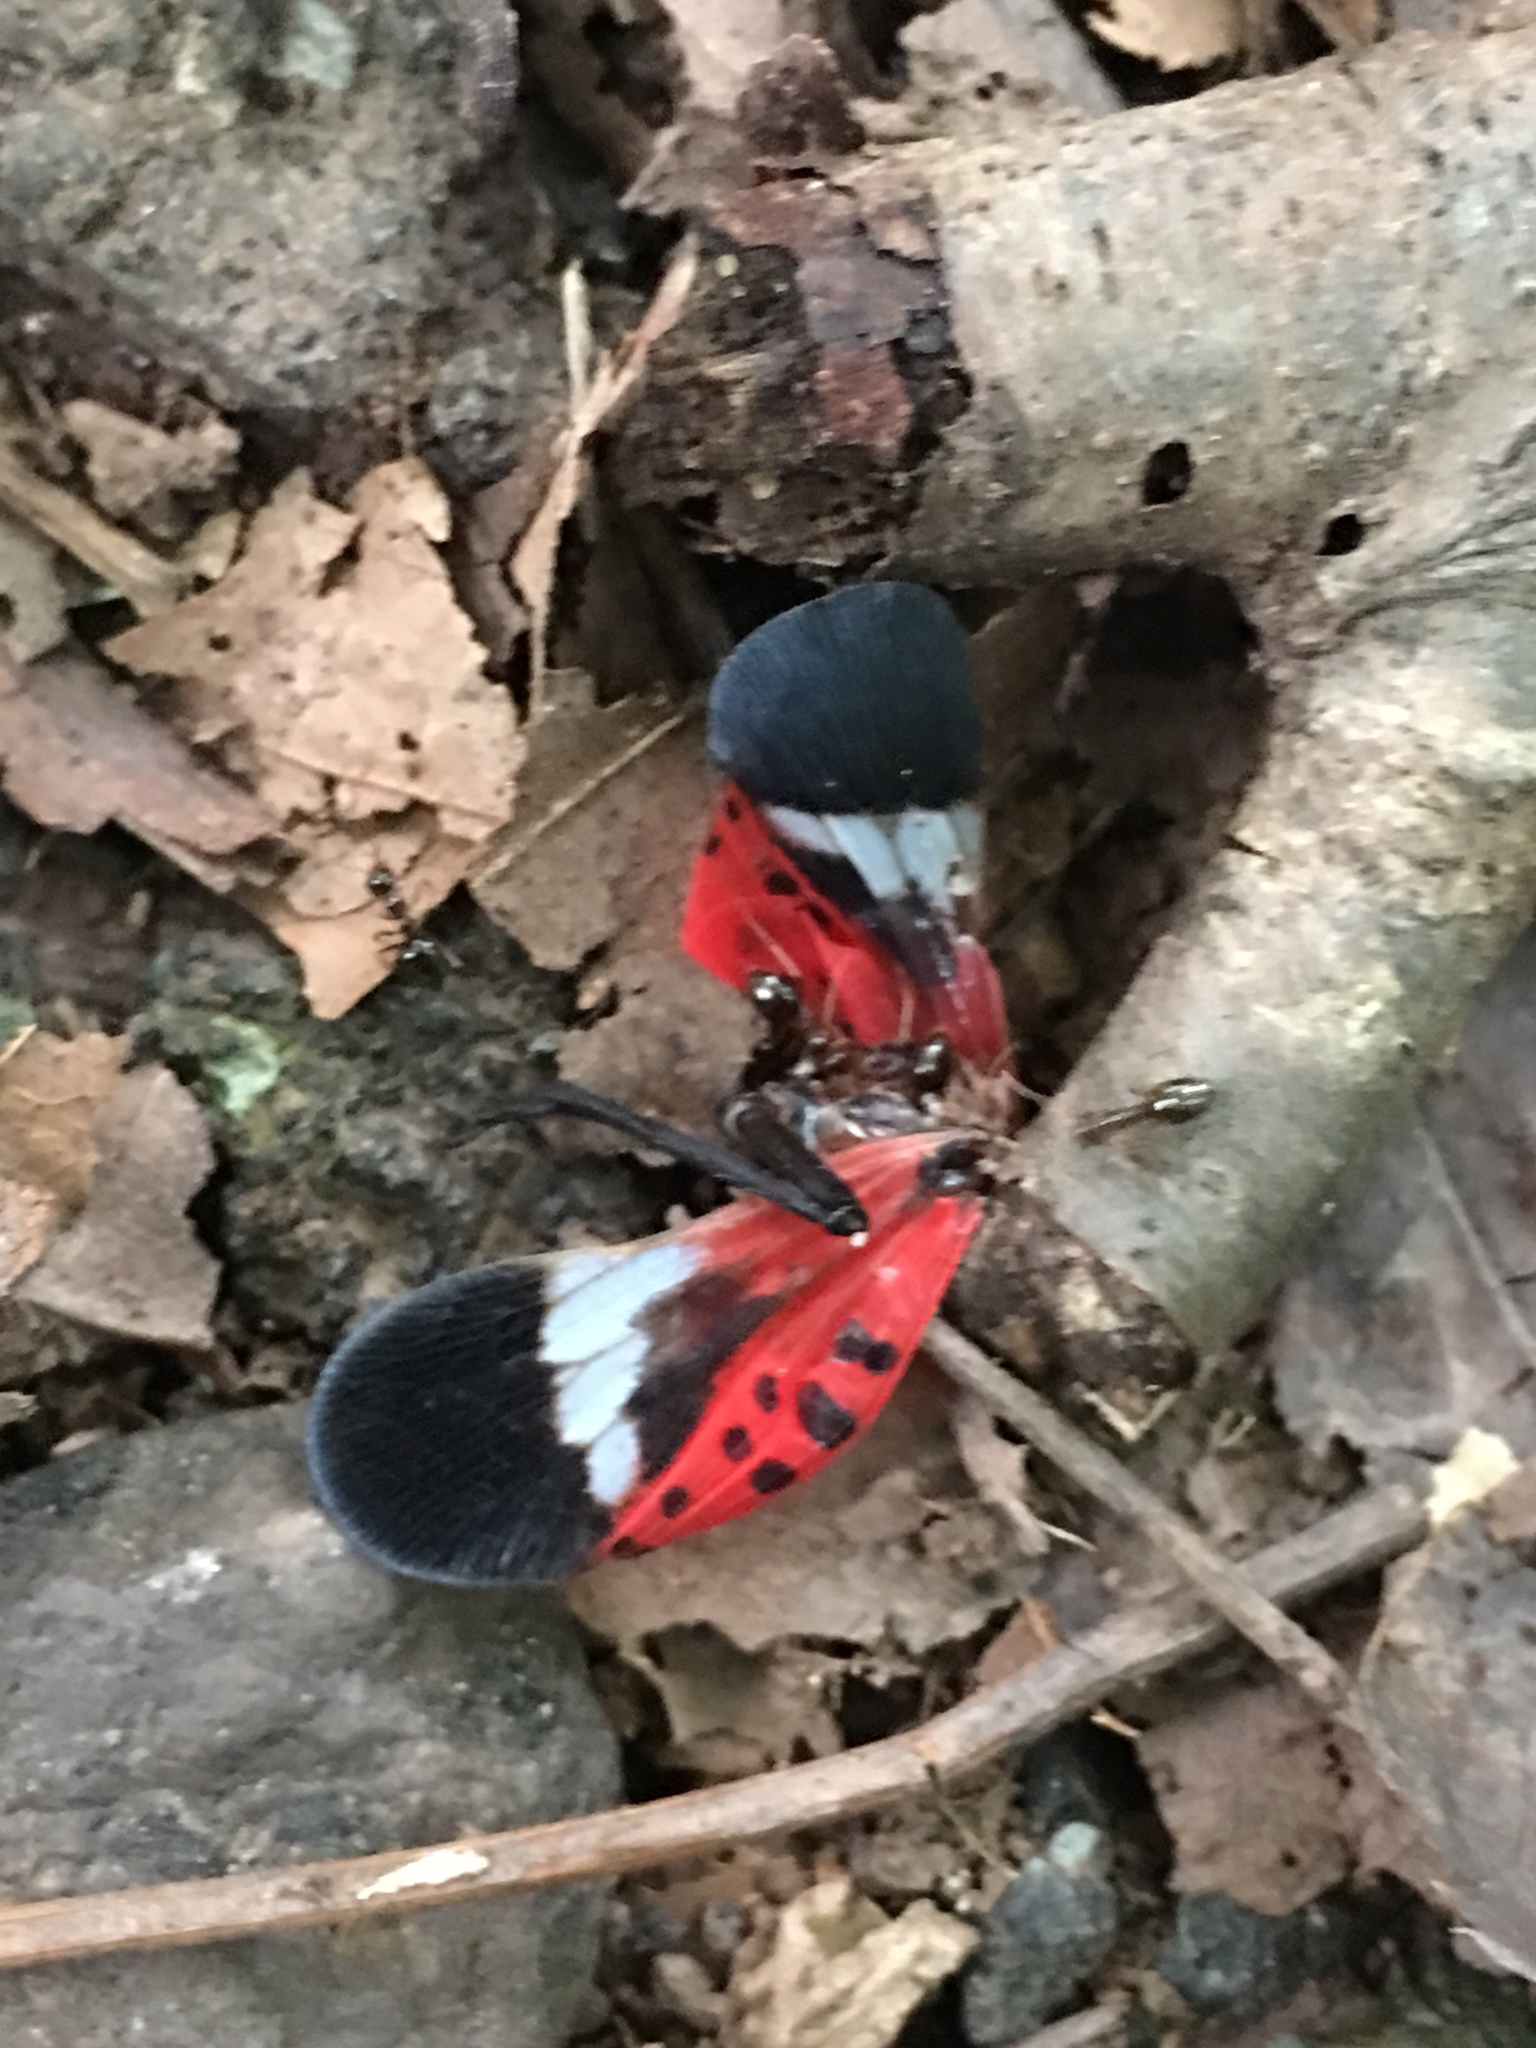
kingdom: Animalia
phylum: Arthropoda
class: Insecta
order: Hemiptera
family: Fulgoridae
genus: Lycorma
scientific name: Lycorma delicatula
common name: Spotted lanternfly
